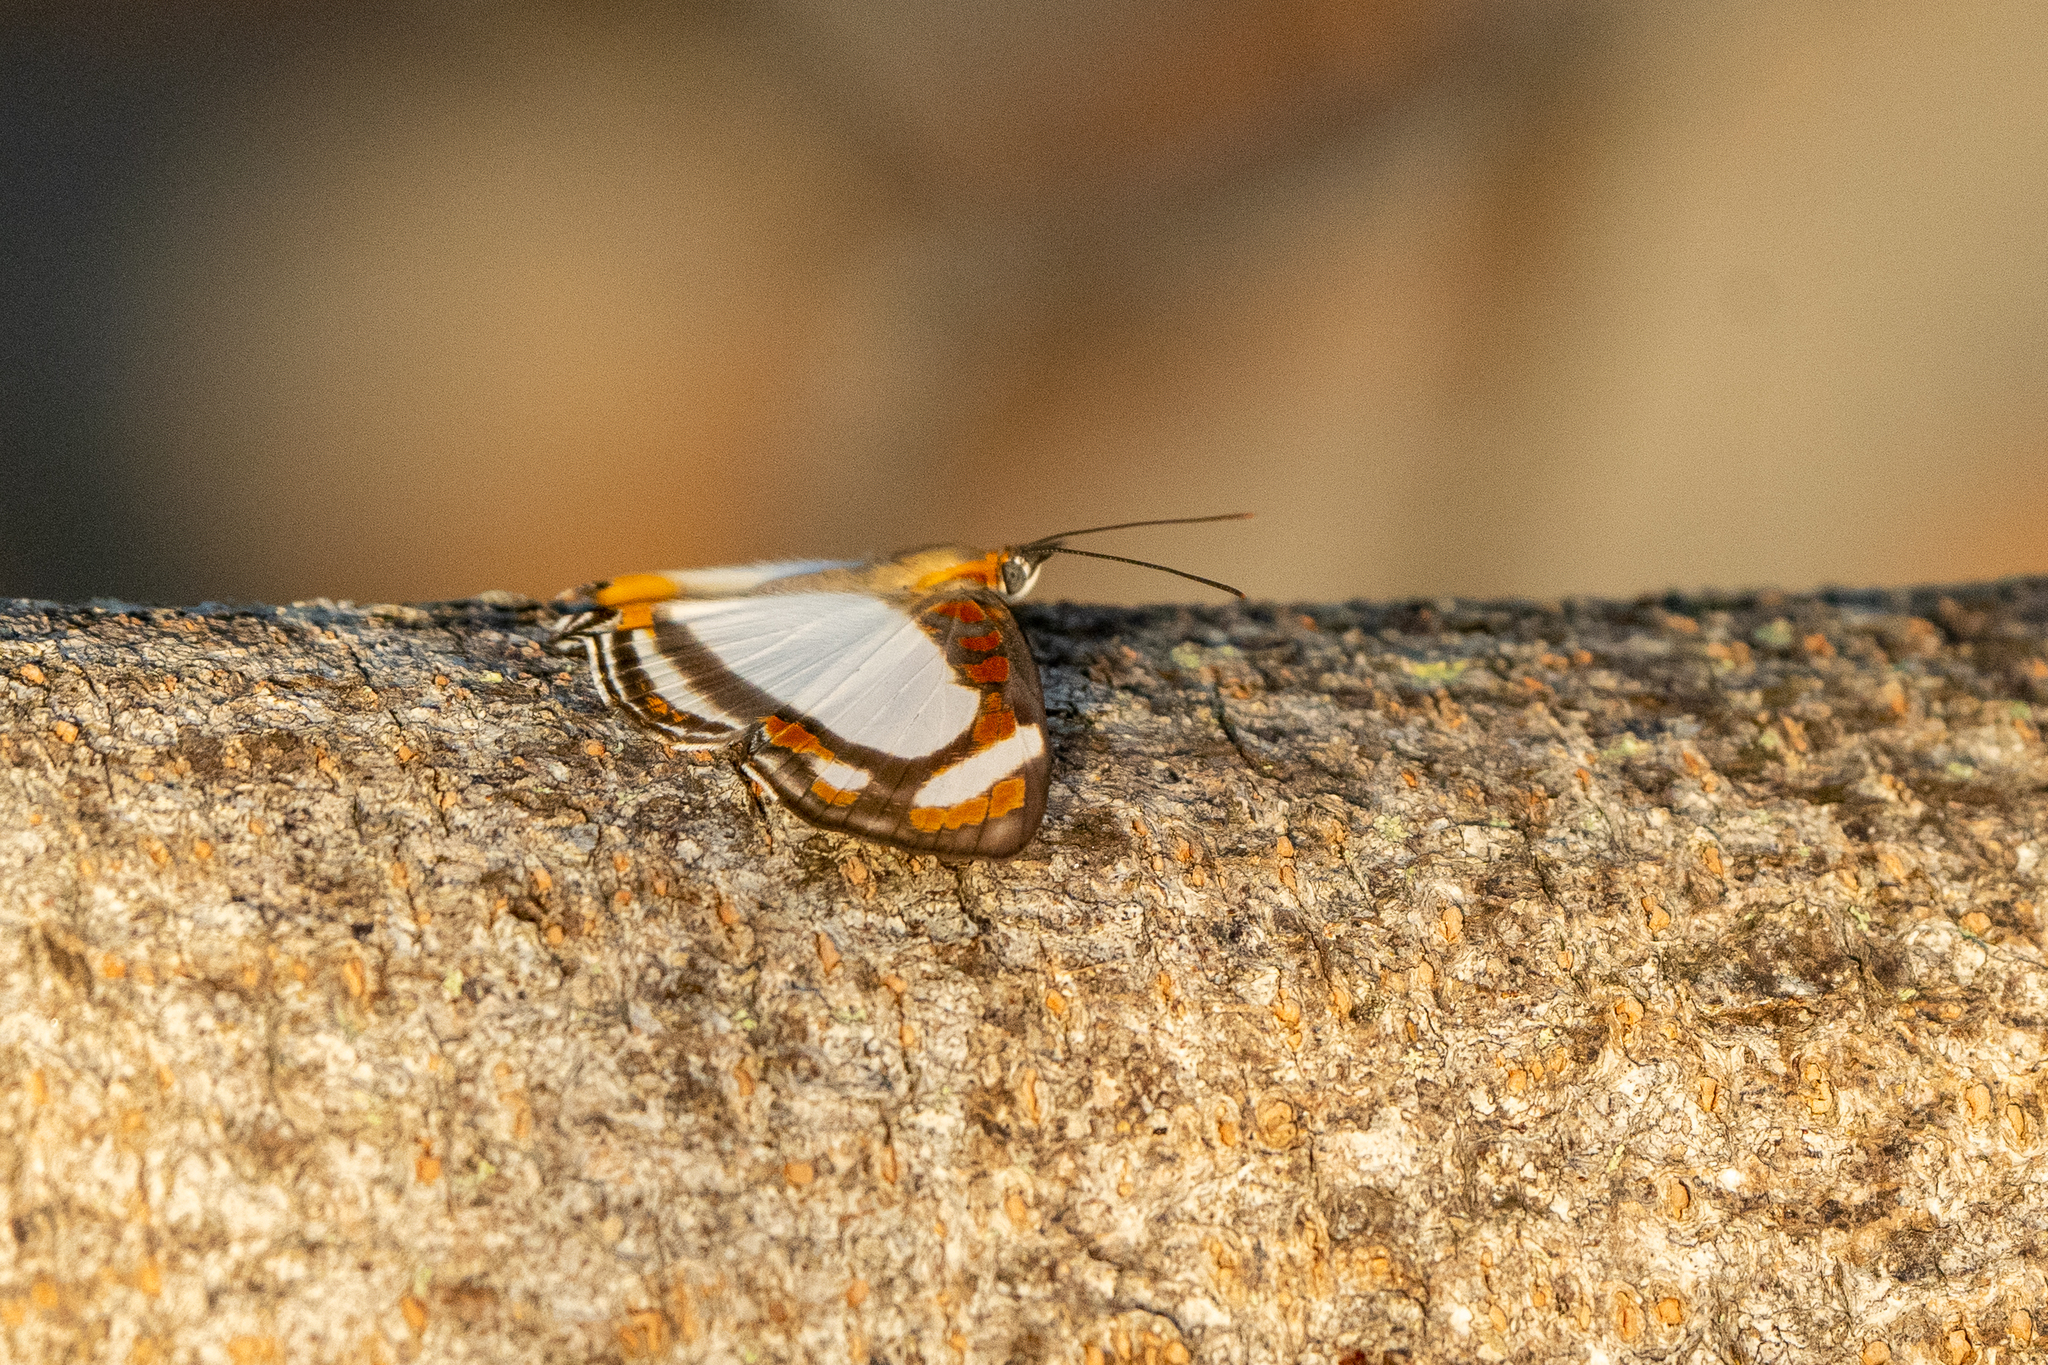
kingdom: Animalia
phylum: Arthropoda
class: Insecta
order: Lepidoptera
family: Riodinidae
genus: Thisbe
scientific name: Thisbe lycorias
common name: Banner metalmark
